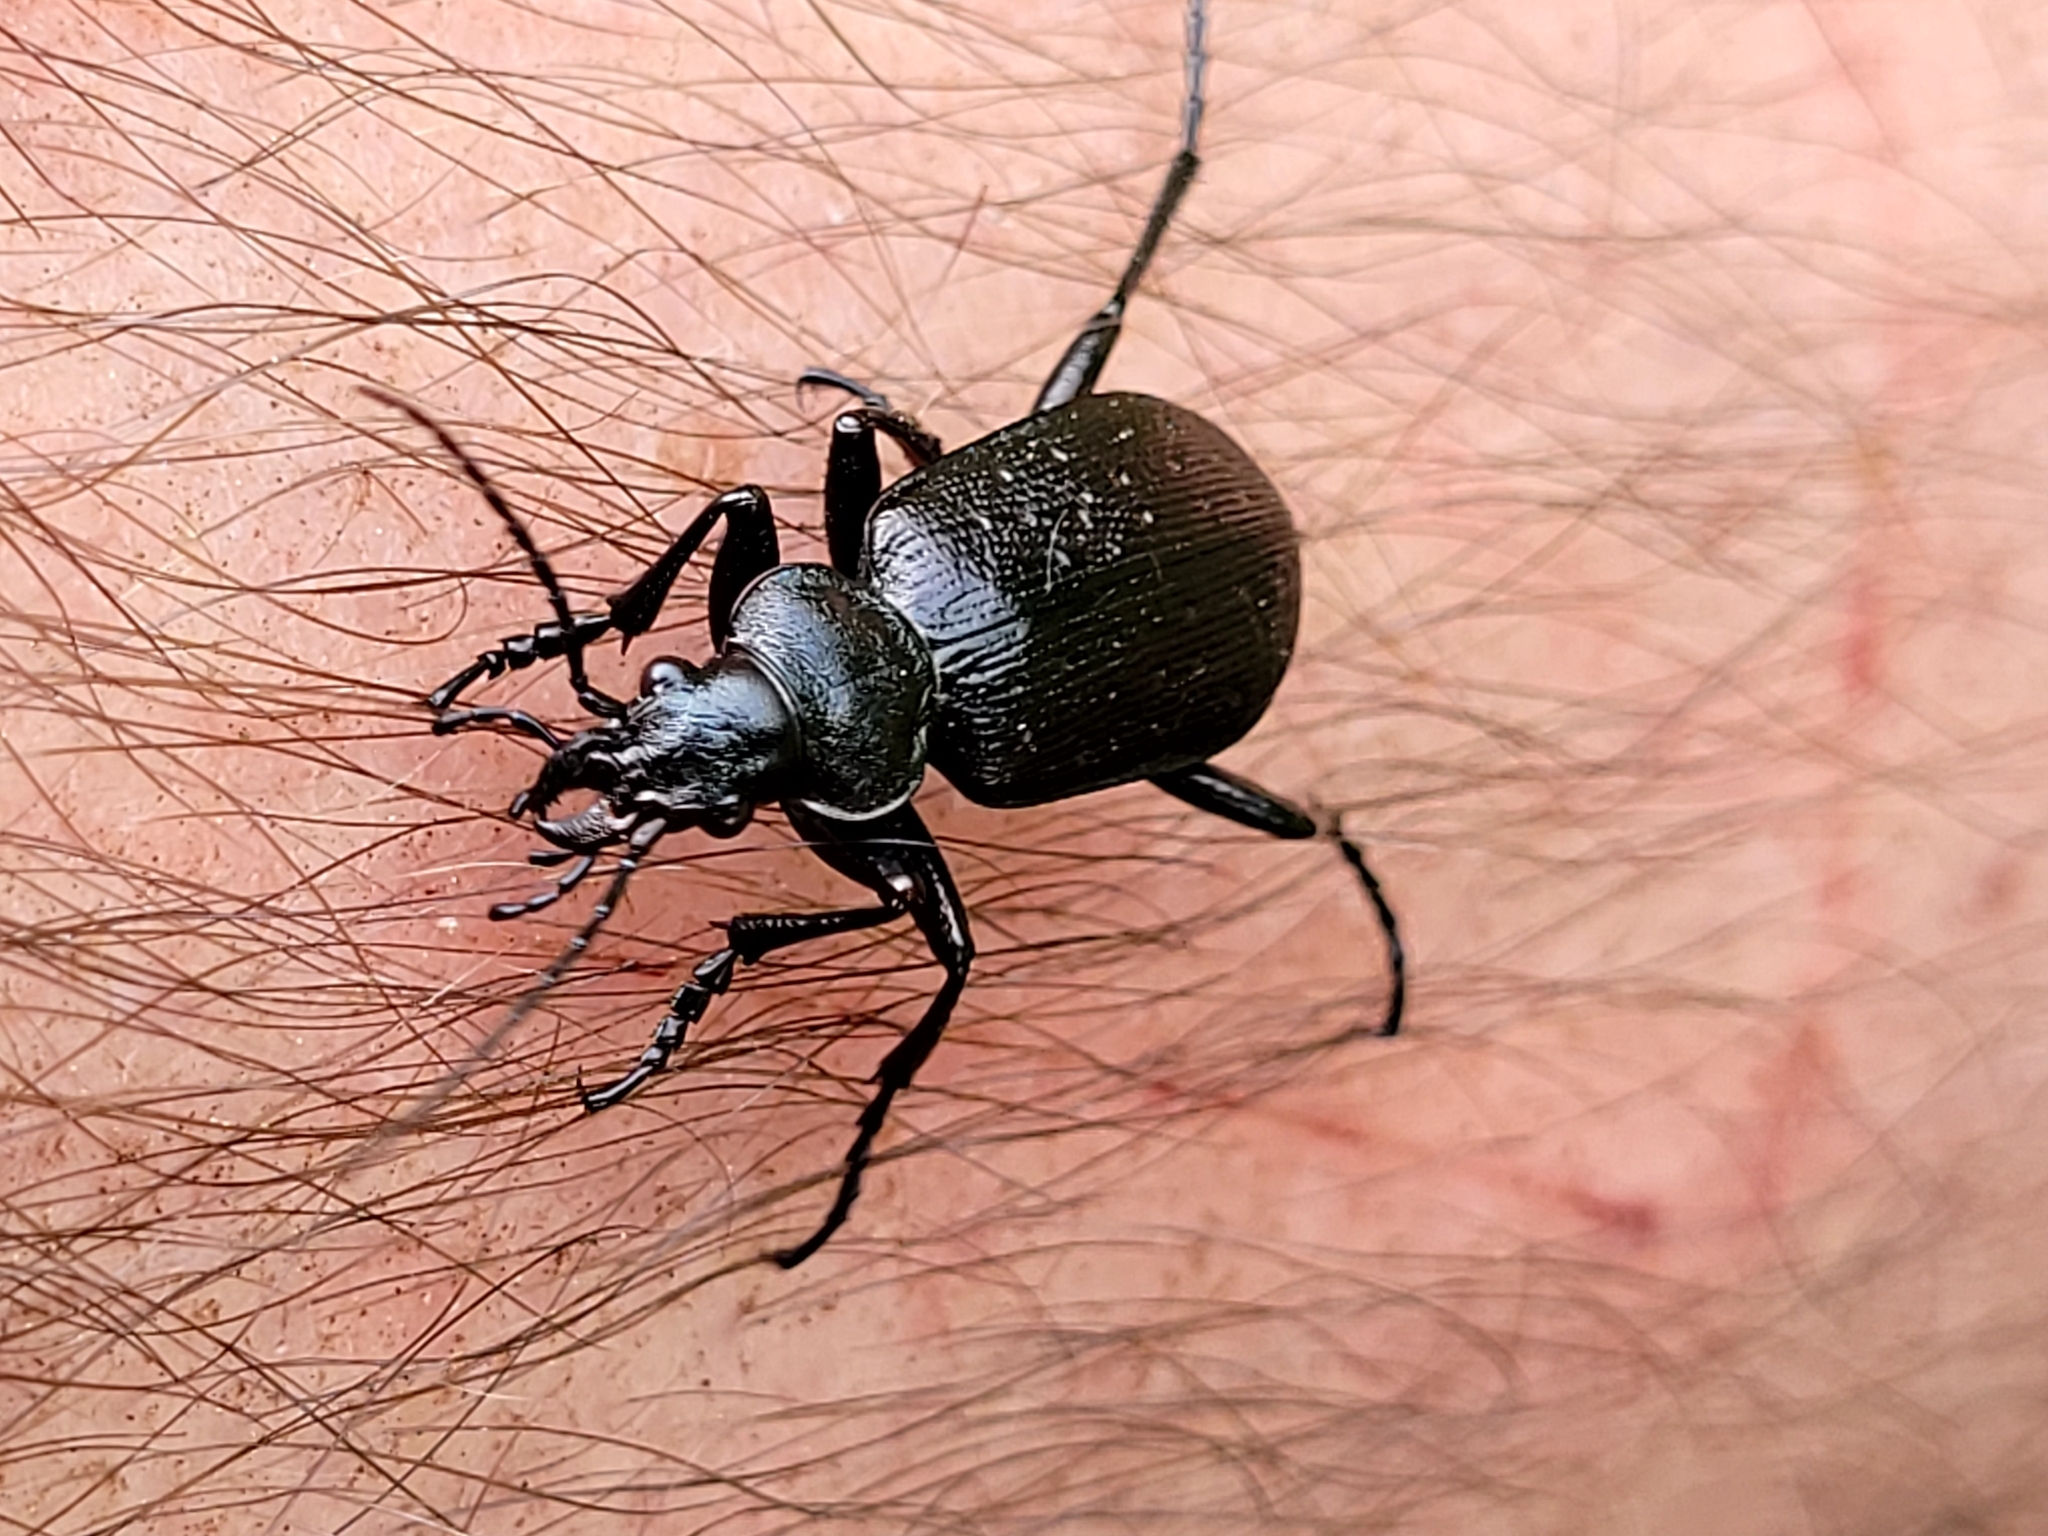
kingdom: Animalia
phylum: Arthropoda
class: Insecta
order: Coleoptera
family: Carabidae
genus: Calosoma
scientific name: Calosoma frigidum
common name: Cold-country caterpillar hunter
